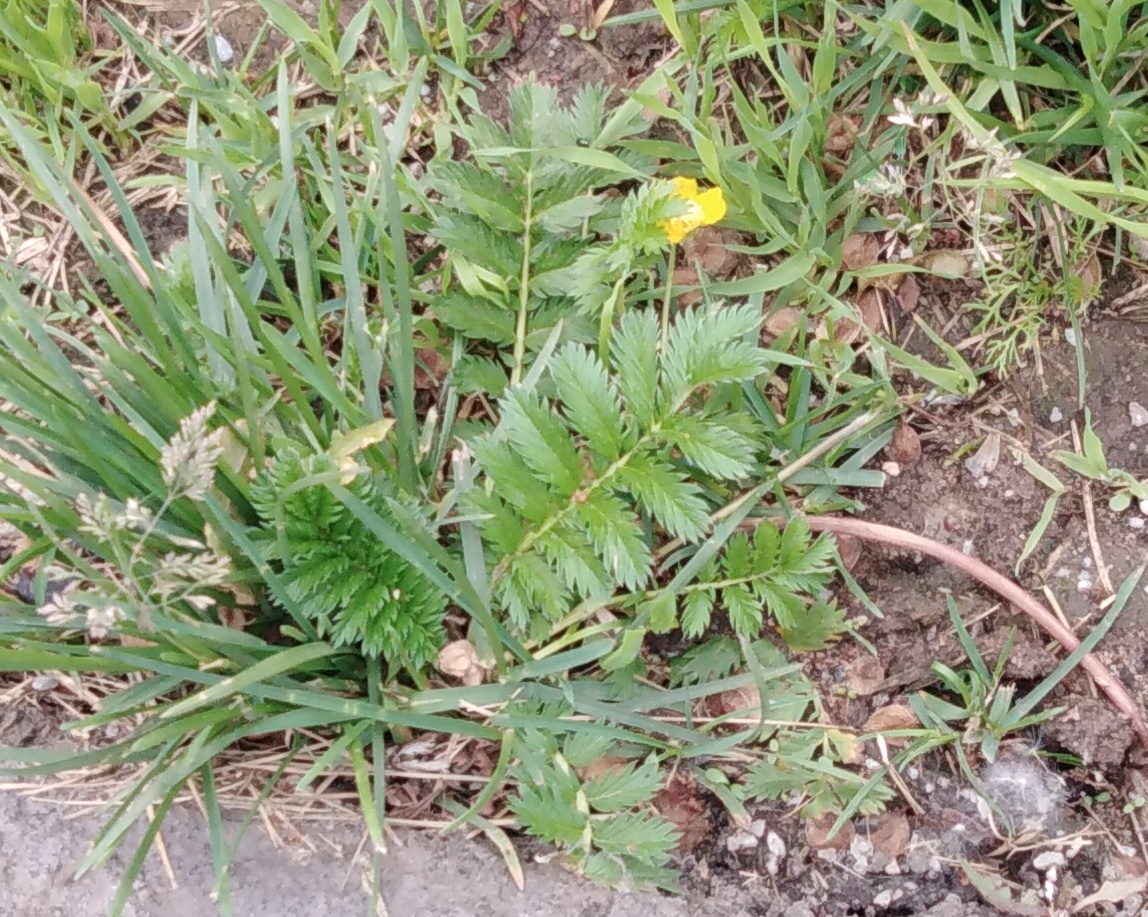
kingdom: Plantae
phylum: Tracheophyta
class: Magnoliopsida
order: Rosales
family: Rosaceae
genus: Argentina
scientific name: Argentina anserina
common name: Common silverweed
